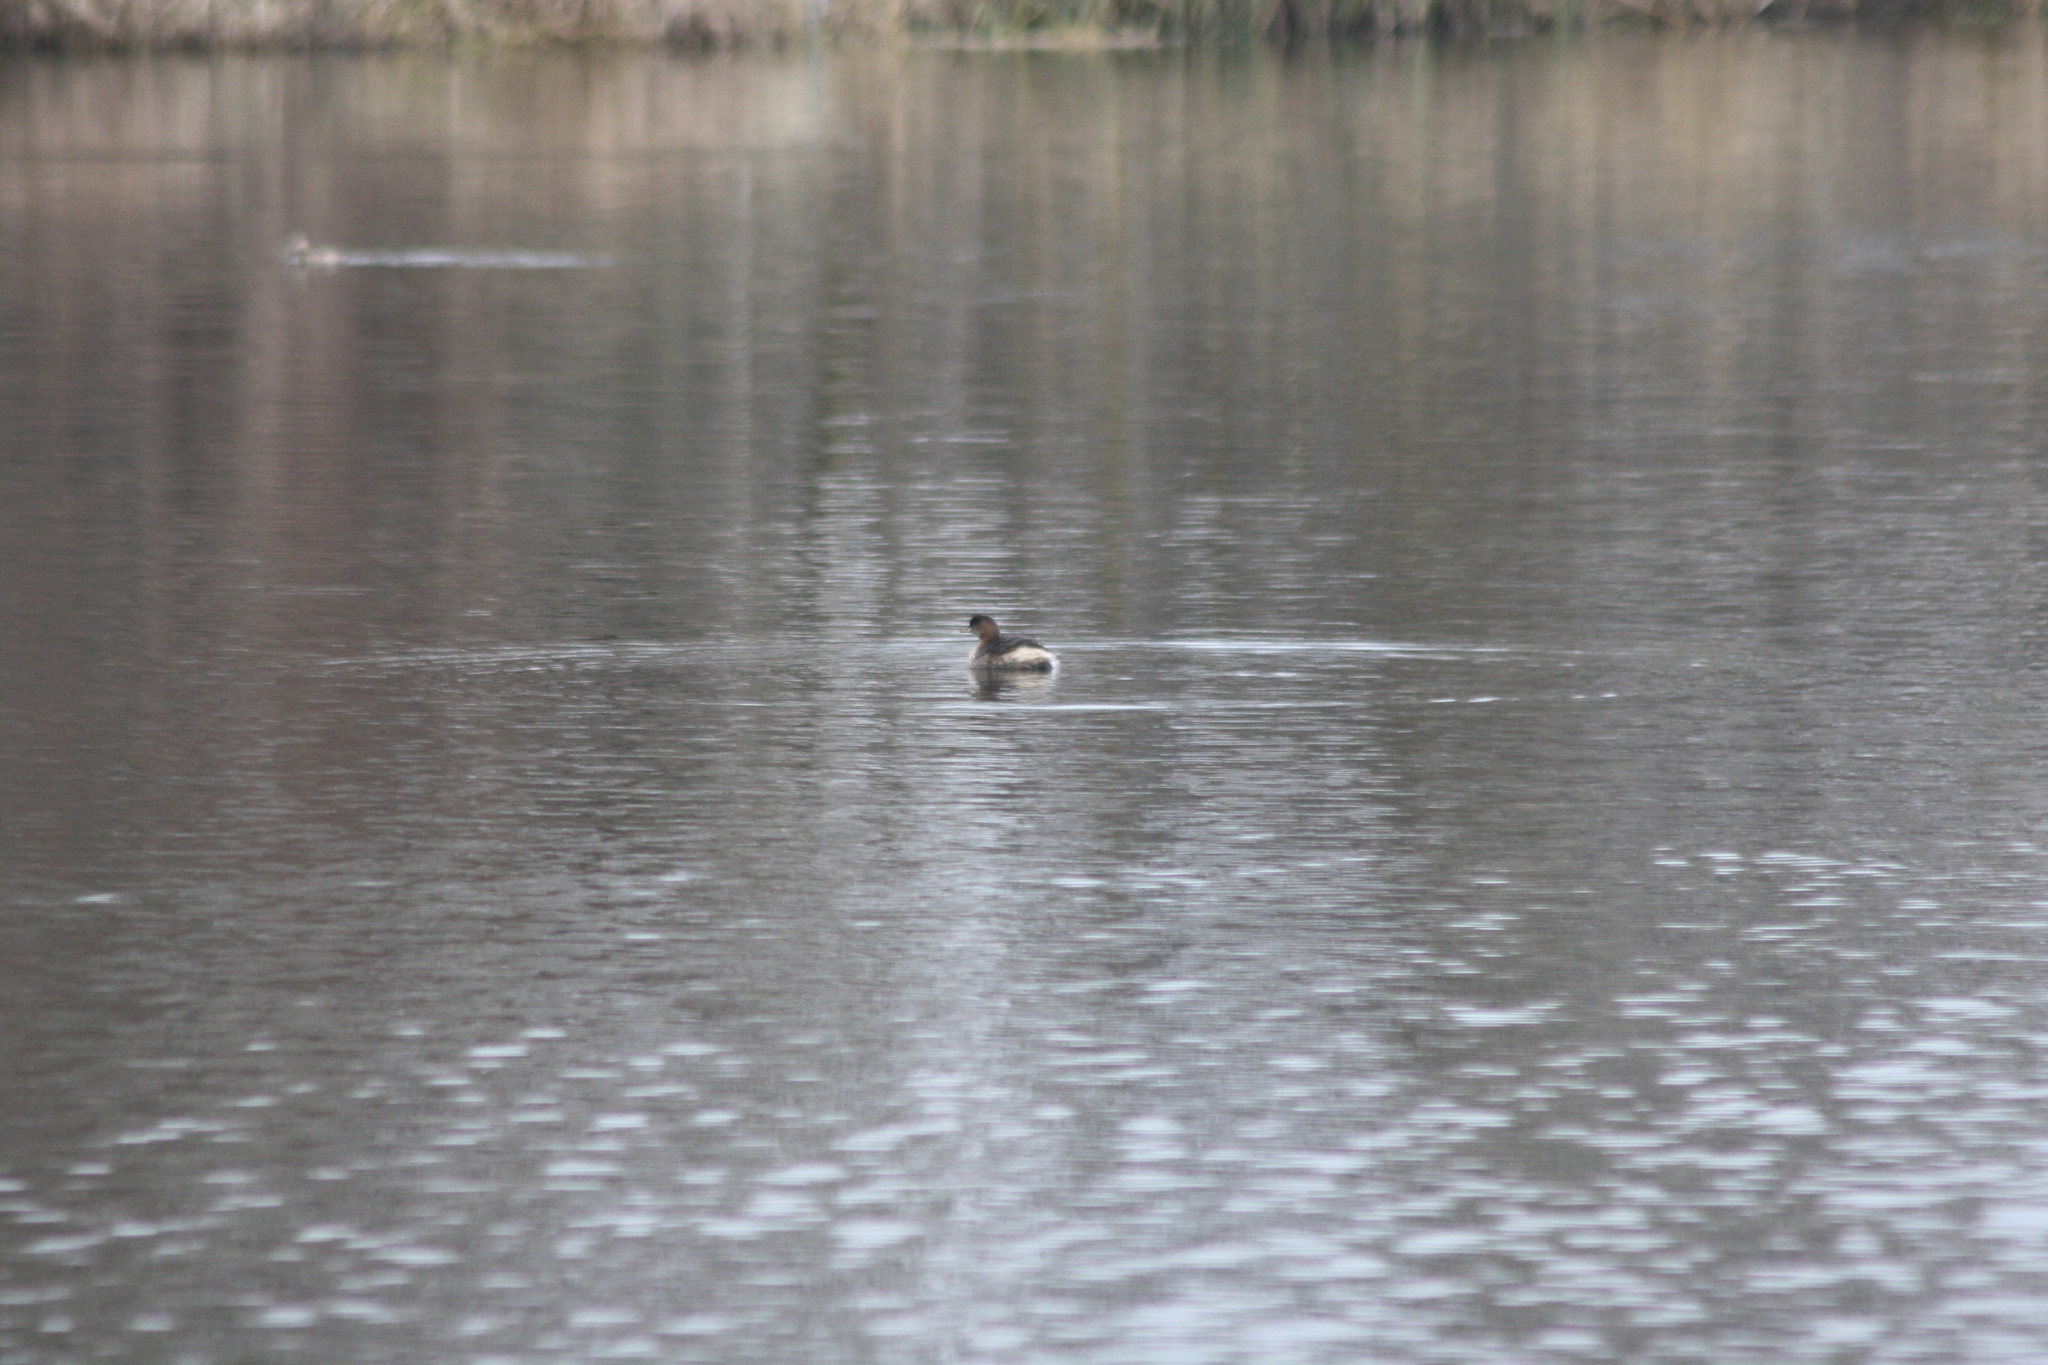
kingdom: Animalia
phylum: Chordata
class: Aves
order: Podicipediformes
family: Podicipedidae
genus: Tachybaptus
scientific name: Tachybaptus ruficollis
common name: Little grebe
